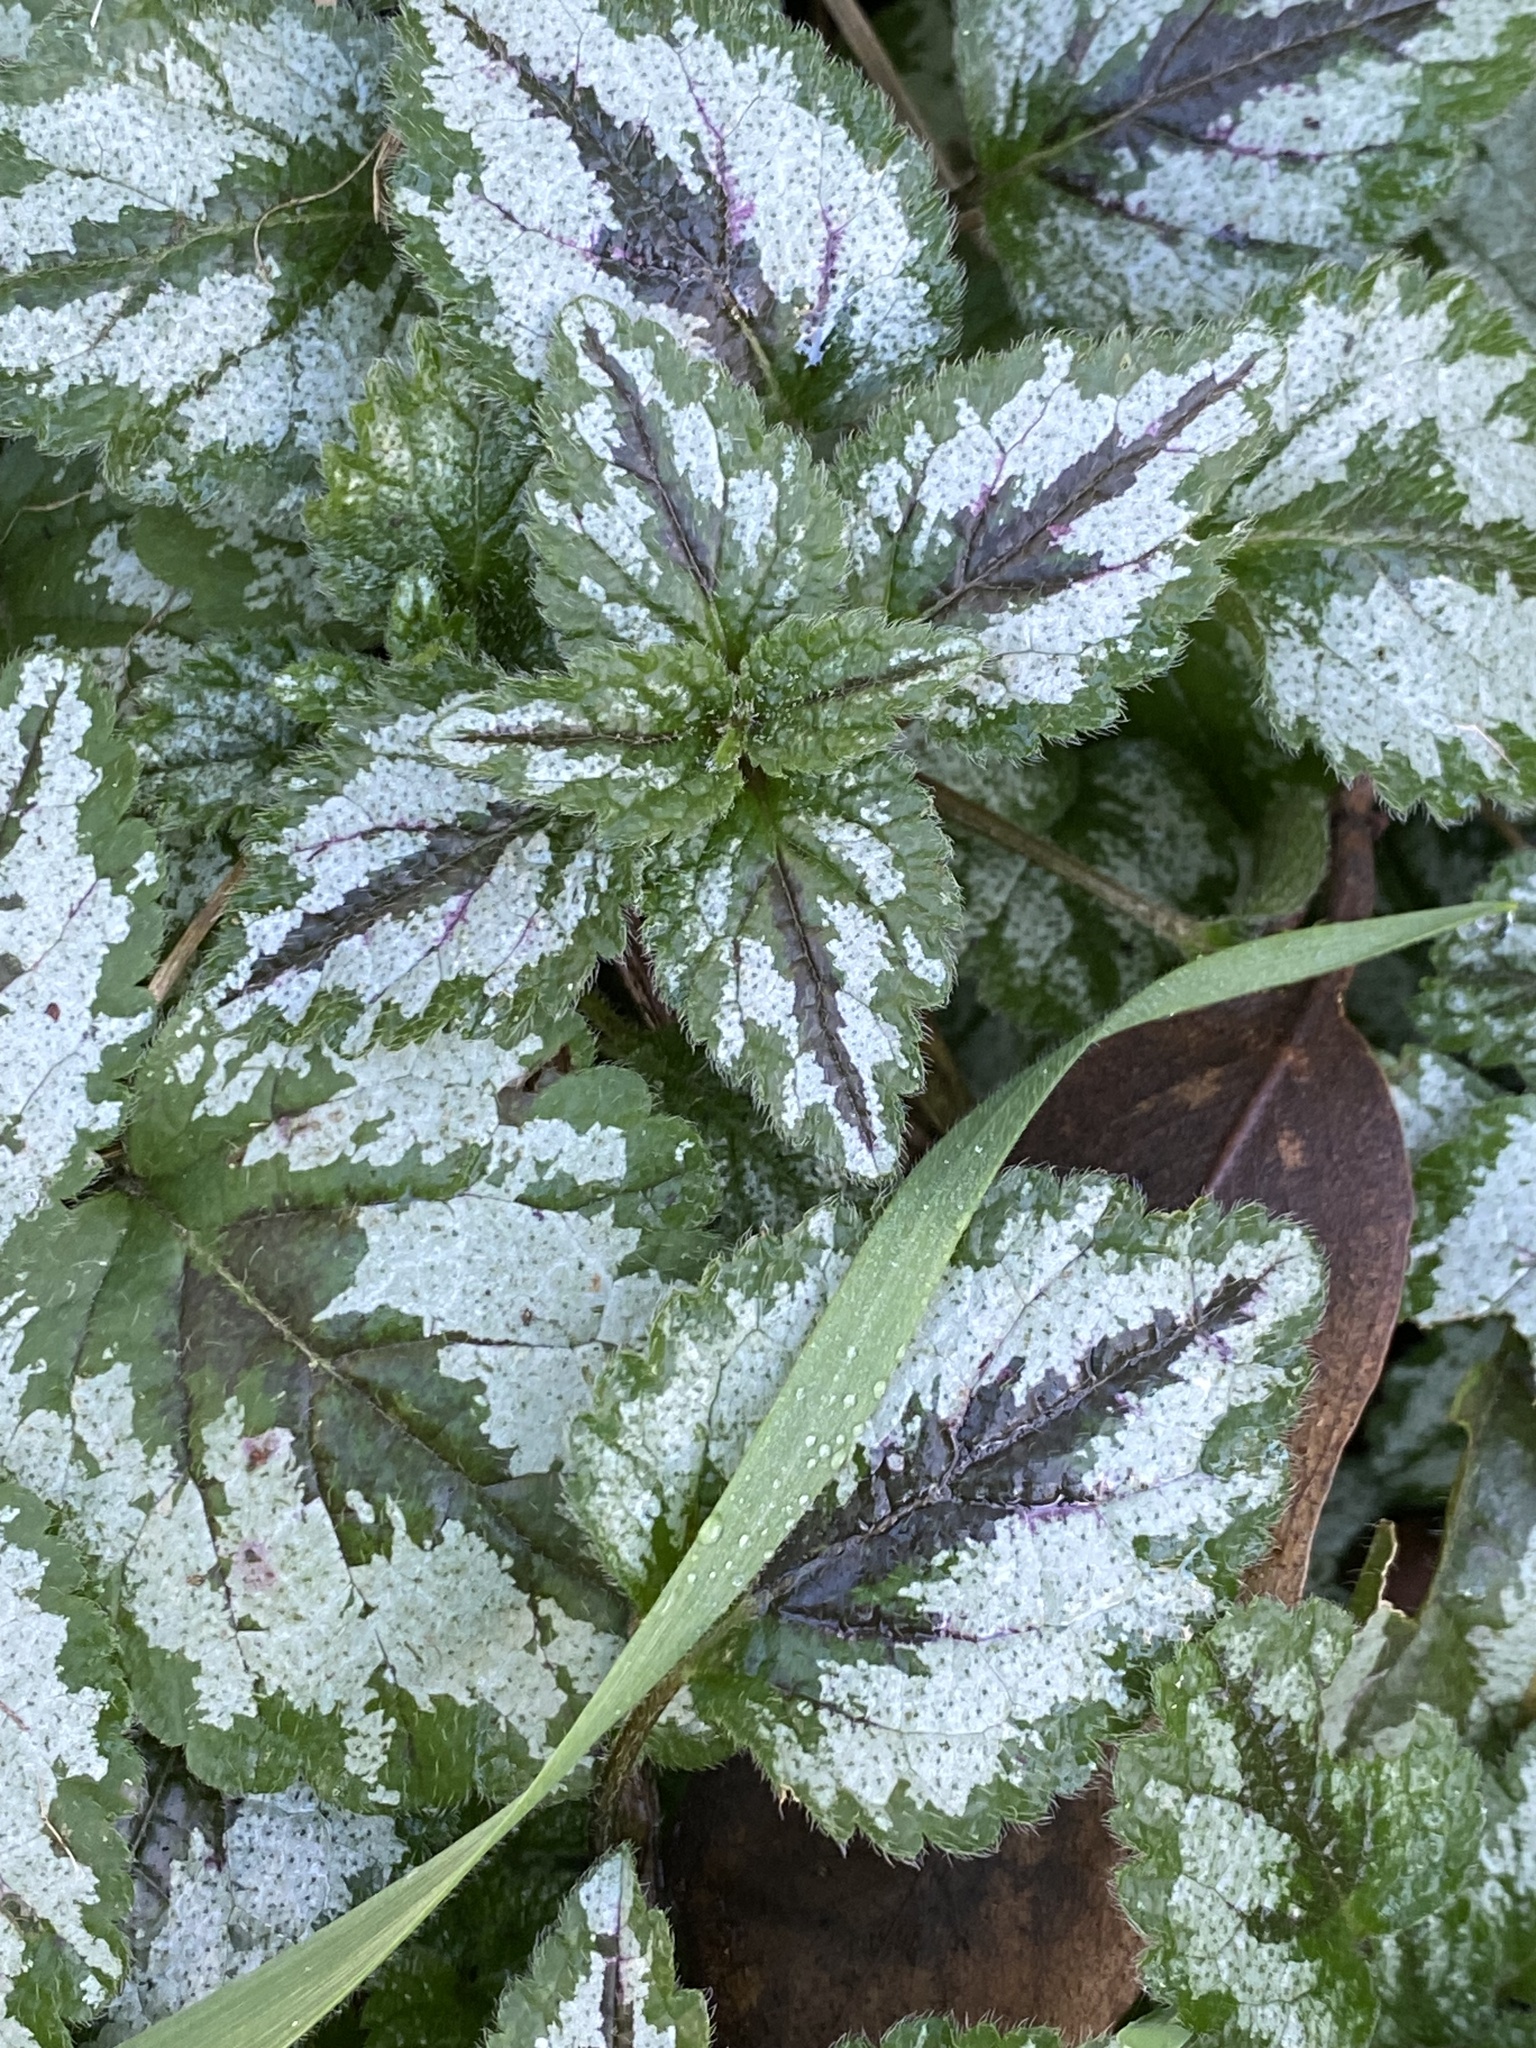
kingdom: Plantae
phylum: Tracheophyta
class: Magnoliopsida
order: Lamiales
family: Lamiaceae
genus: Lamium
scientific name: Lamium galeobdolon
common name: Yellow archangel
